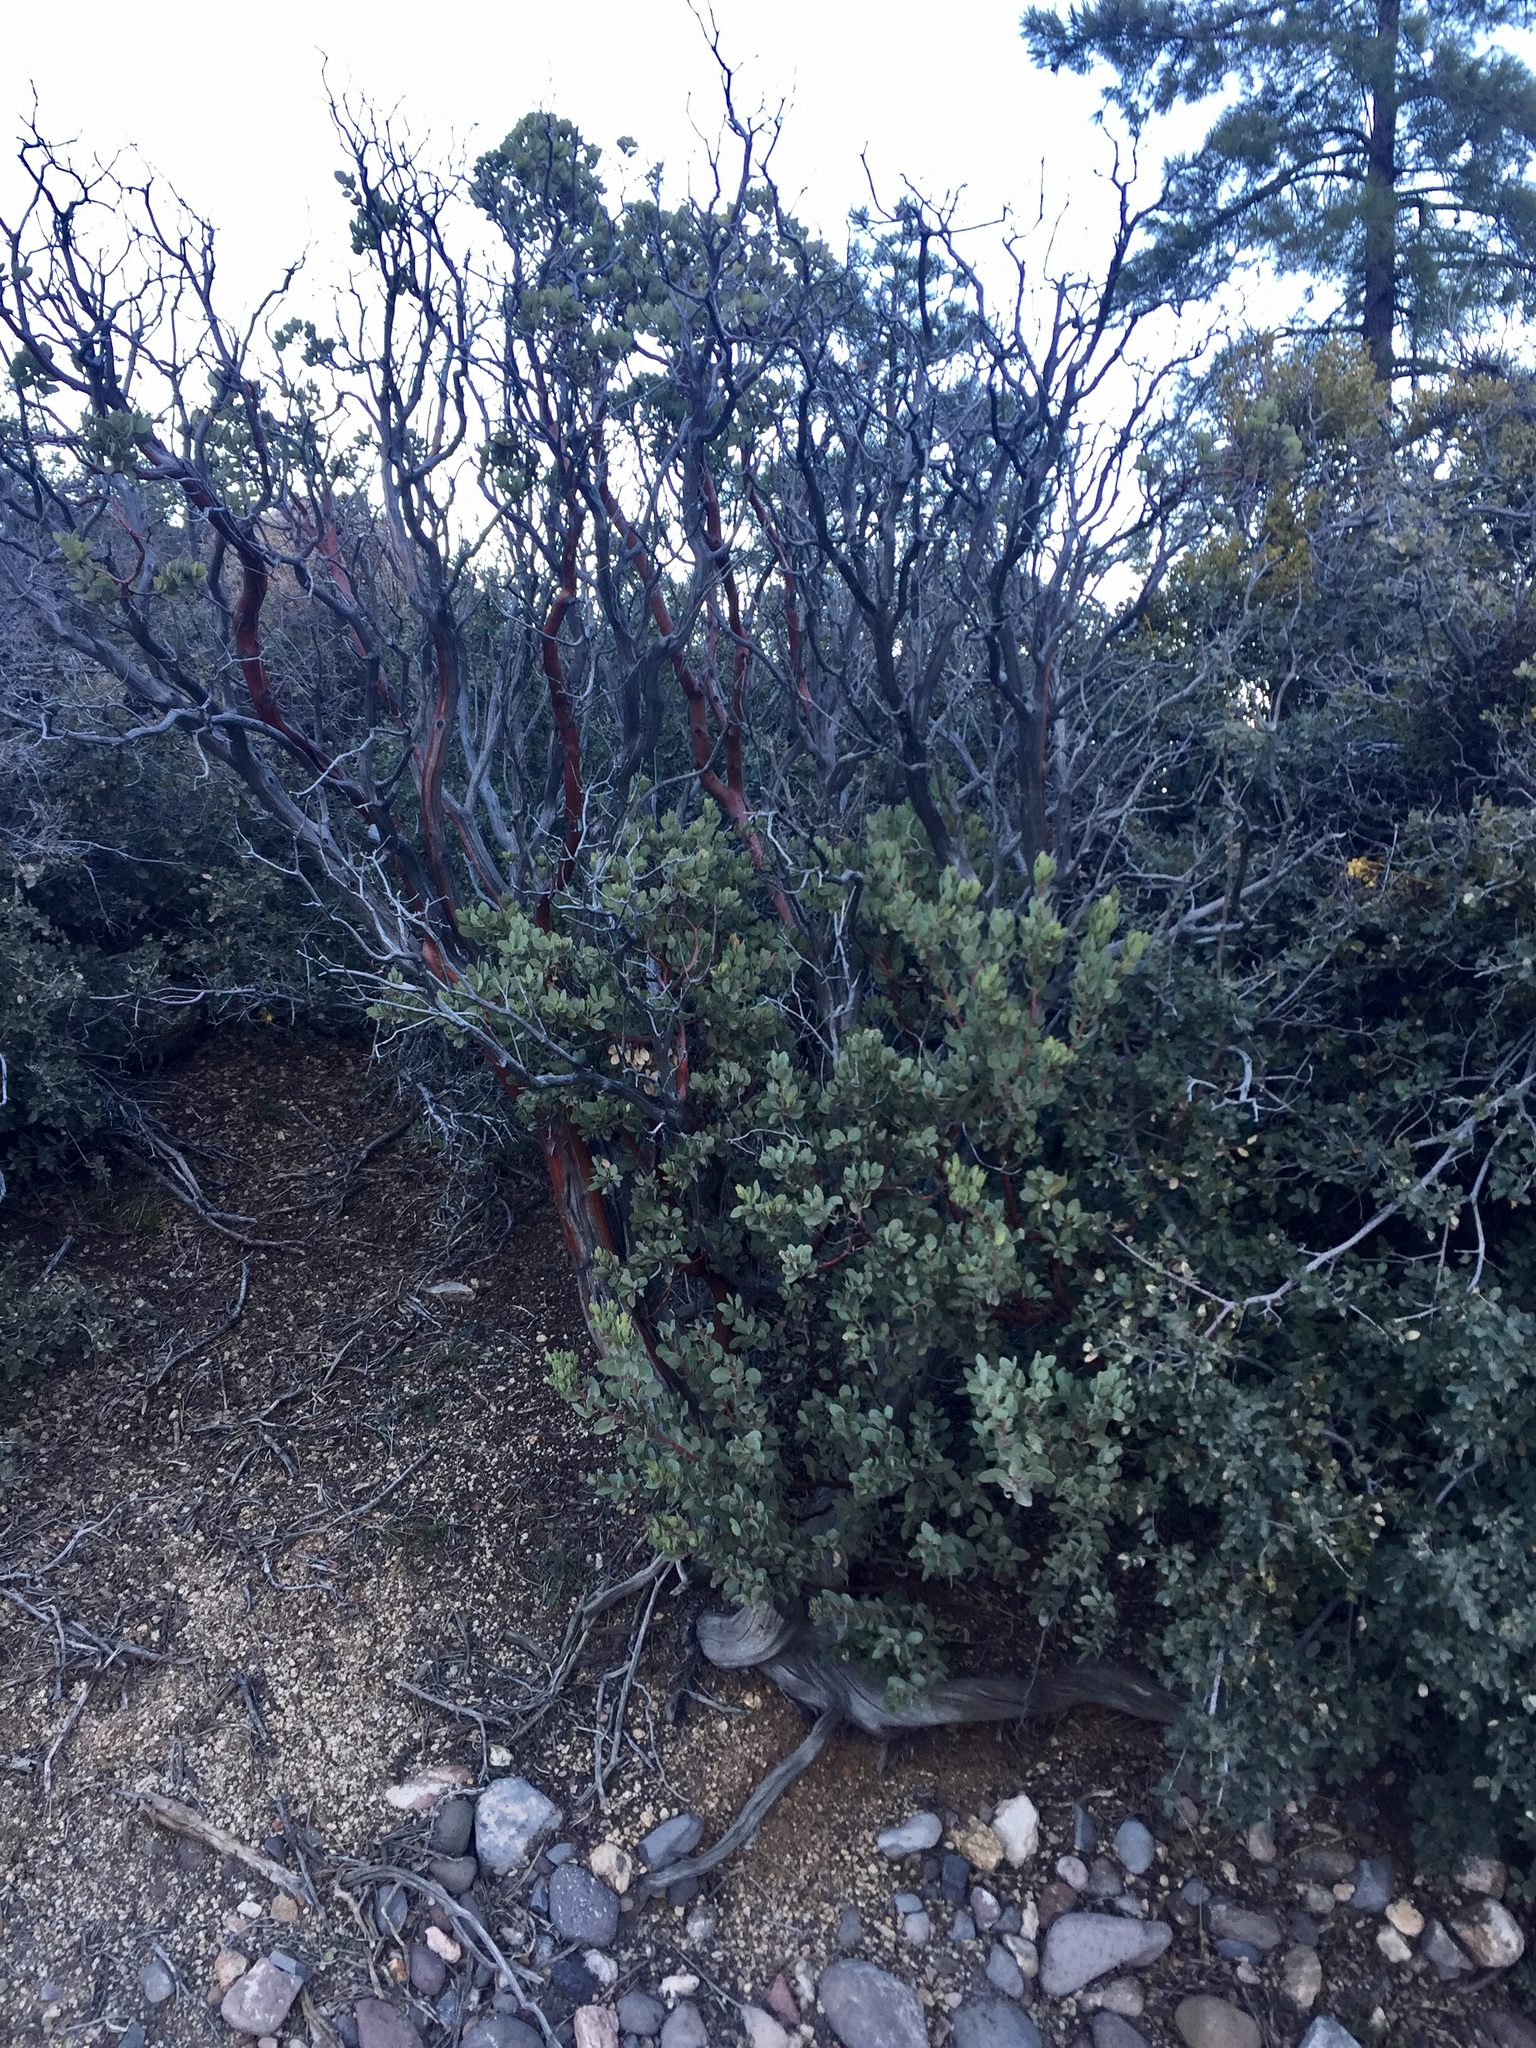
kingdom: Plantae
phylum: Tracheophyta
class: Magnoliopsida
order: Ericales
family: Ericaceae
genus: Arctostaphylos
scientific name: Arctostaphylos pungens
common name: Mexican manzanita
